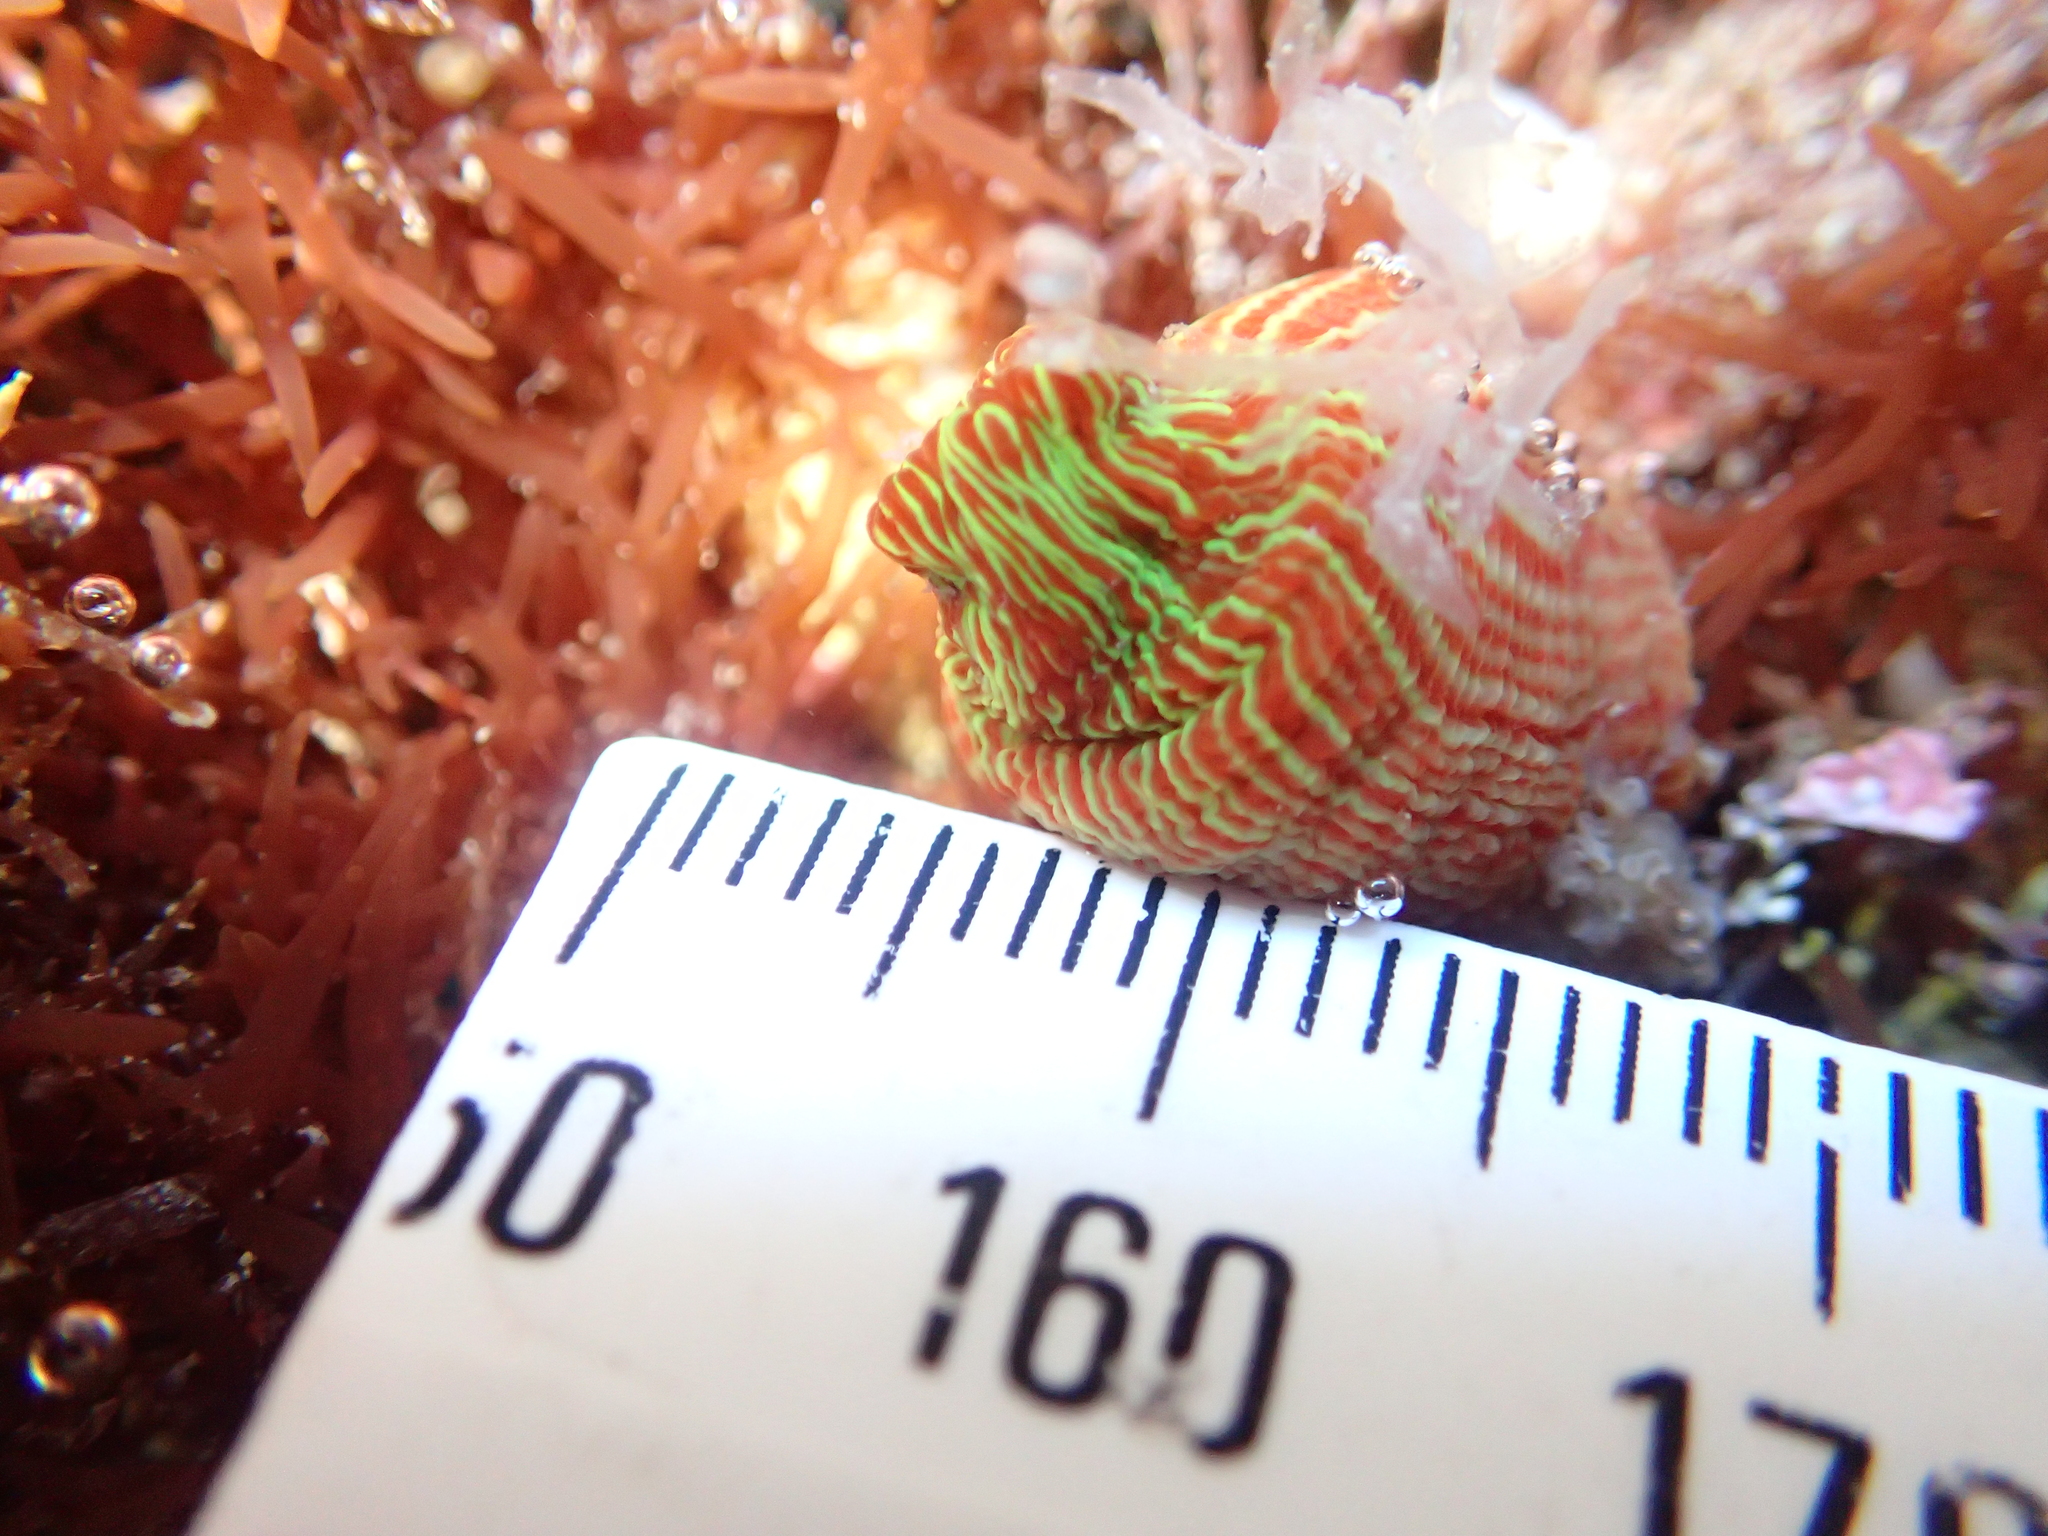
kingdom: Animalia
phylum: Cnidaria
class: Anthozoa
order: Actiniaria
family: Actiniidae
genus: Epiactis
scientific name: Epiactis thompsoni
